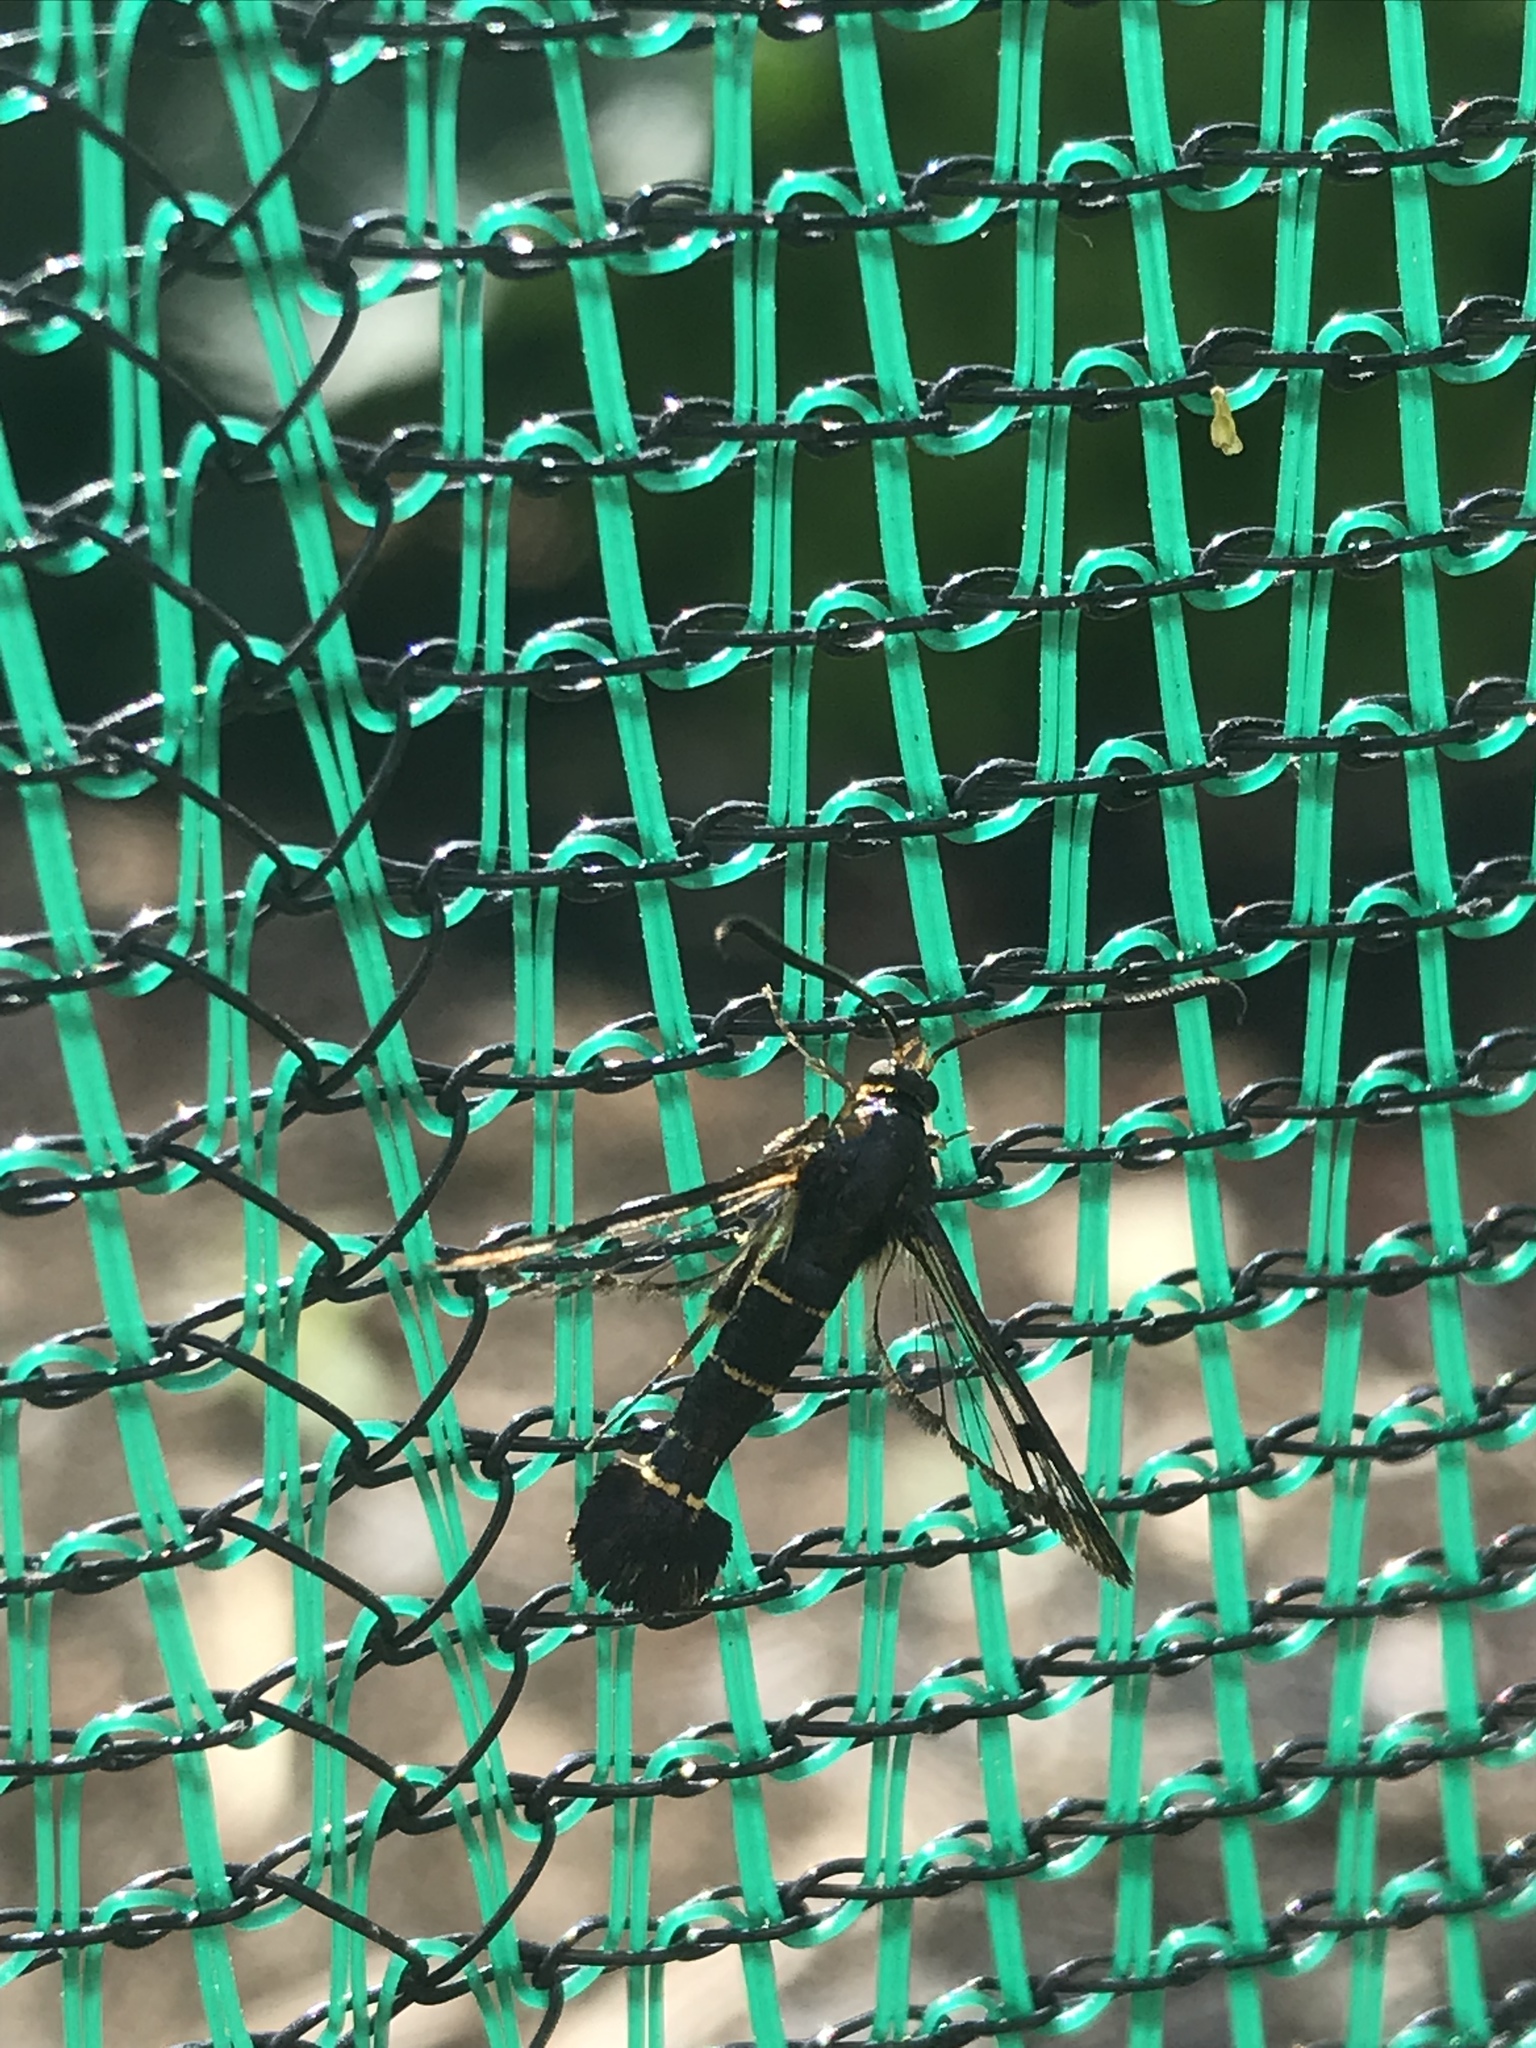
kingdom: Animalia
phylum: Arthropoda
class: Insecta
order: Lepidoptera
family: Sesiidae
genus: Synanthedon
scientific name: Synanthedon tipuliformis
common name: Currant clearwing
